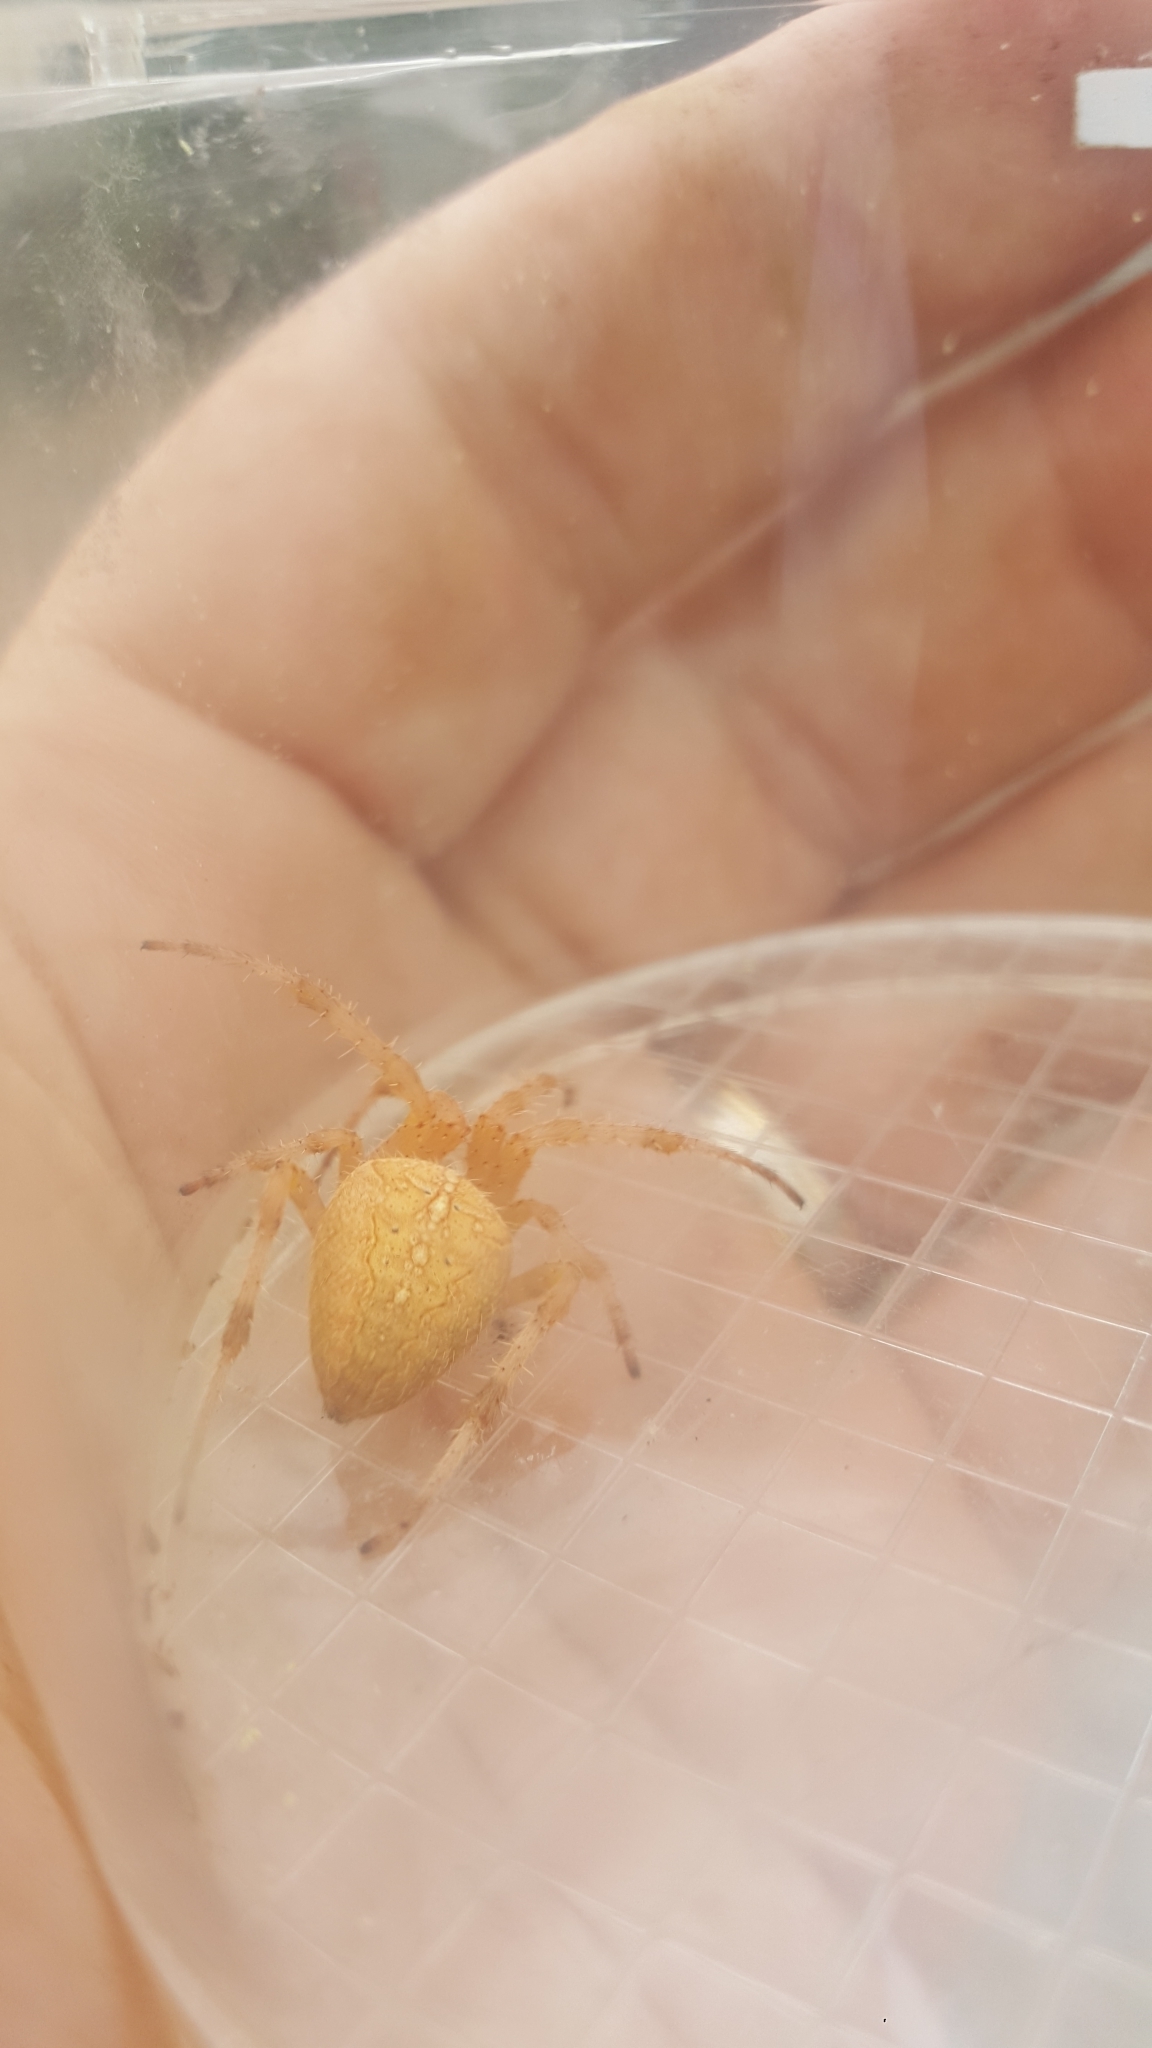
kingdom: Animalia
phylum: Arthropoda
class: Arachnida
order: Araneae
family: Araneidae
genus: Araneus
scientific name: Araneus diadematus
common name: Cross orbweaver
